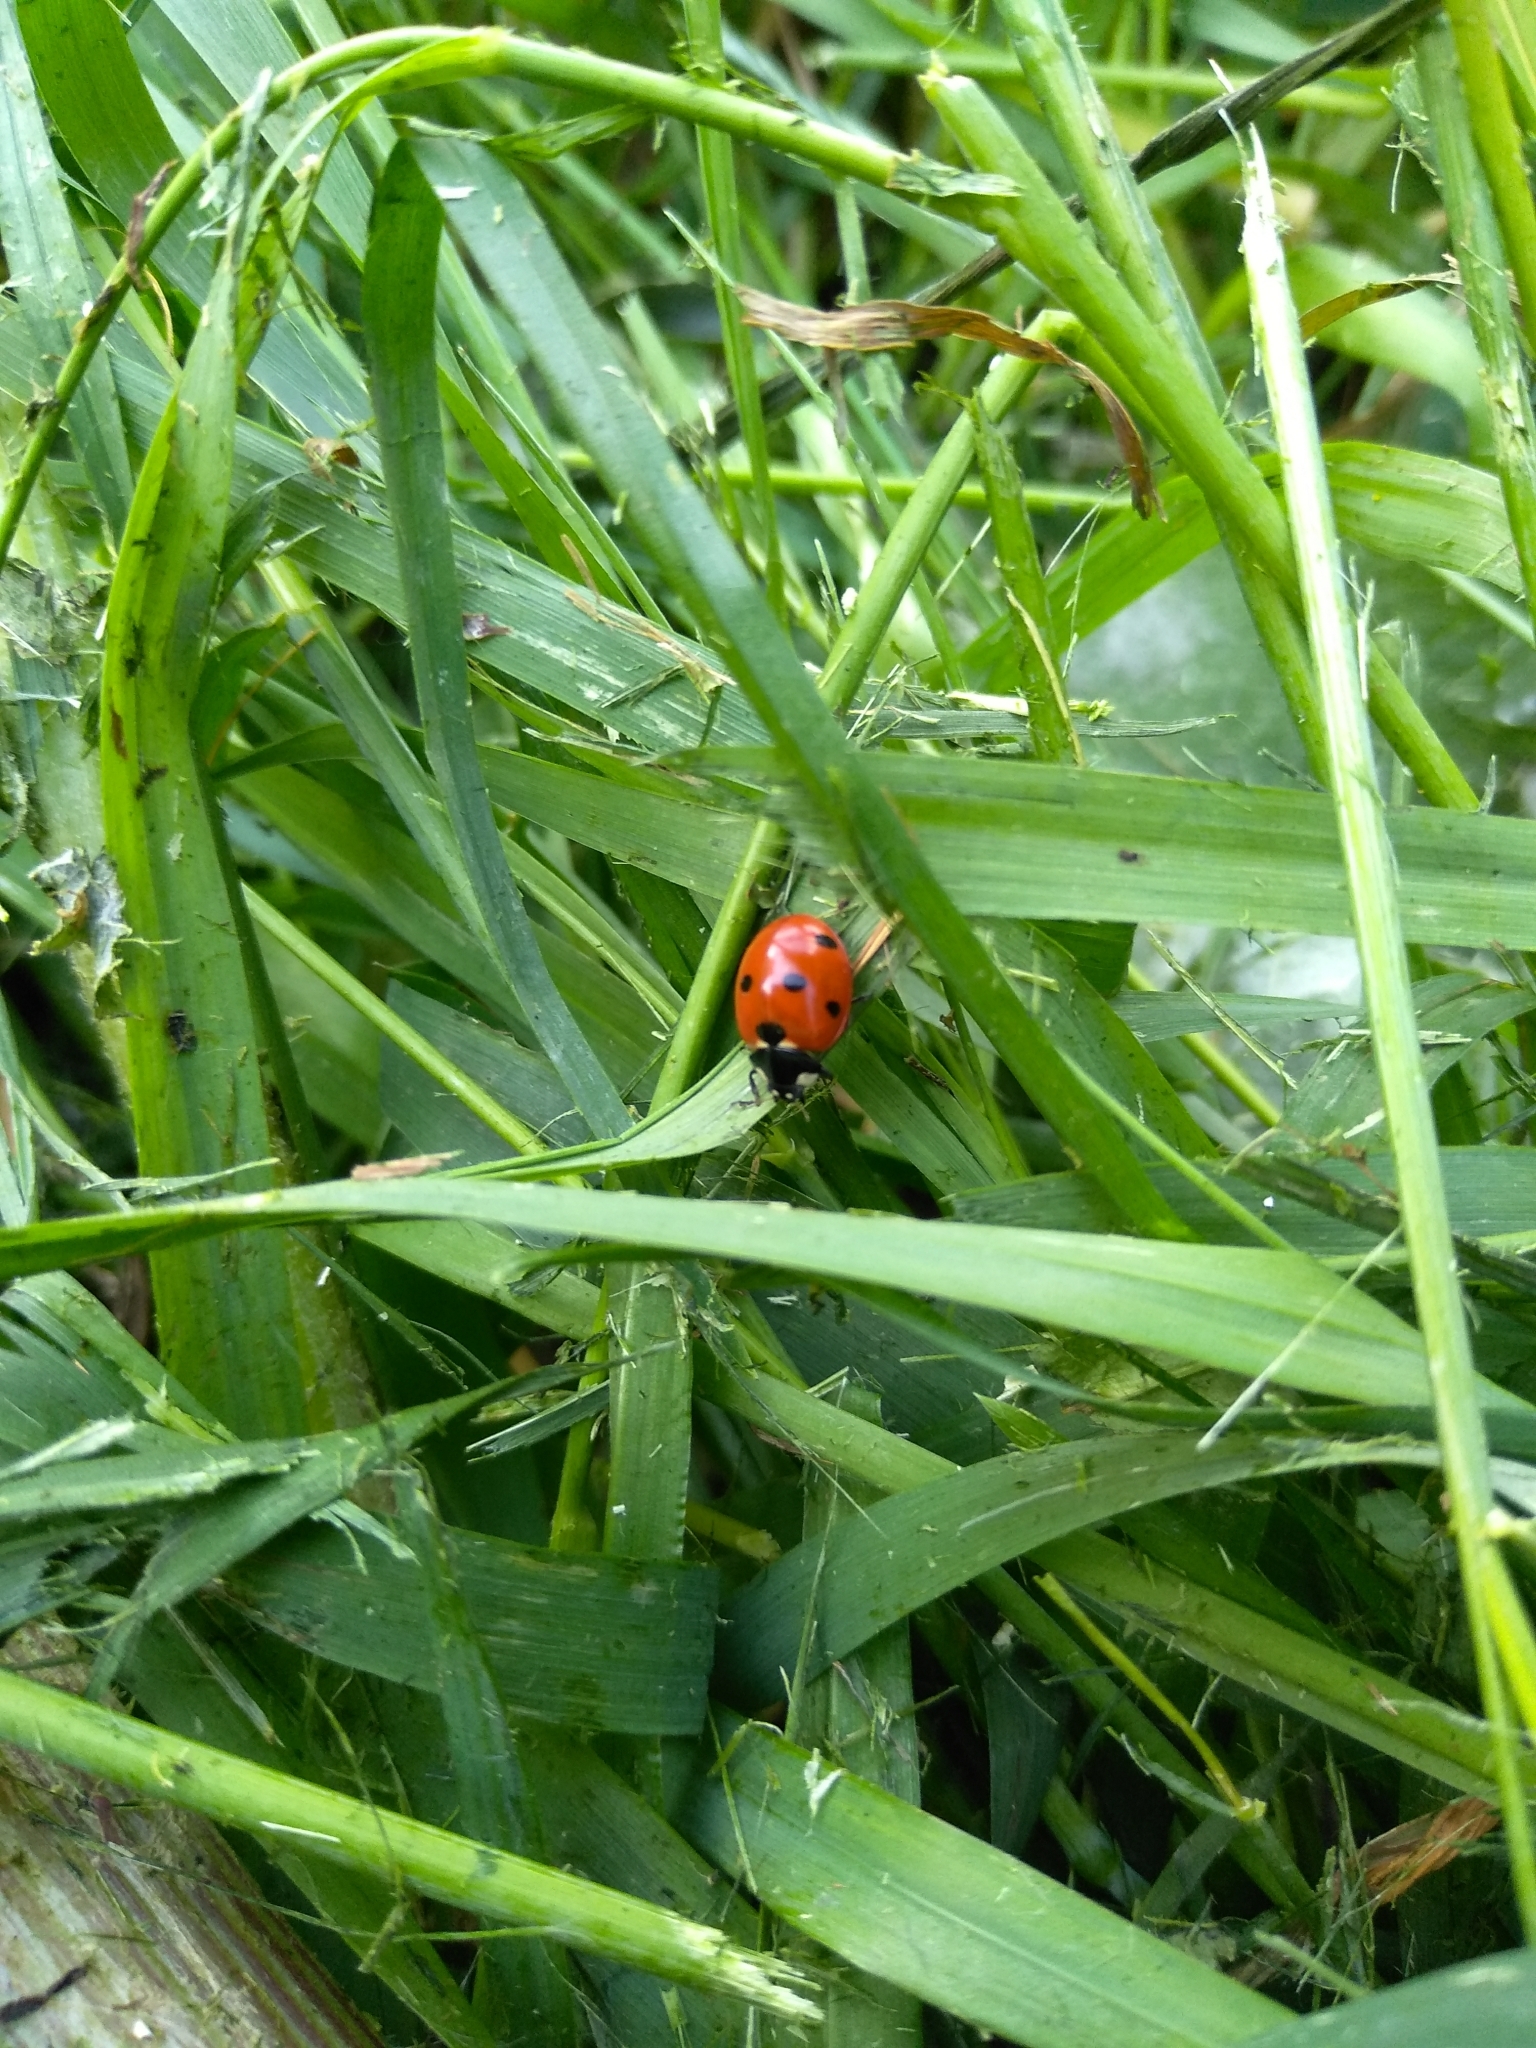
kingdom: Animalia
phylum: Arthropoda
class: Insecta
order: Coleoptera
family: Coccinellidae
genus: Coccinella
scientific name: Coccinella septempunctata
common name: Sevenspotted lady beetle
